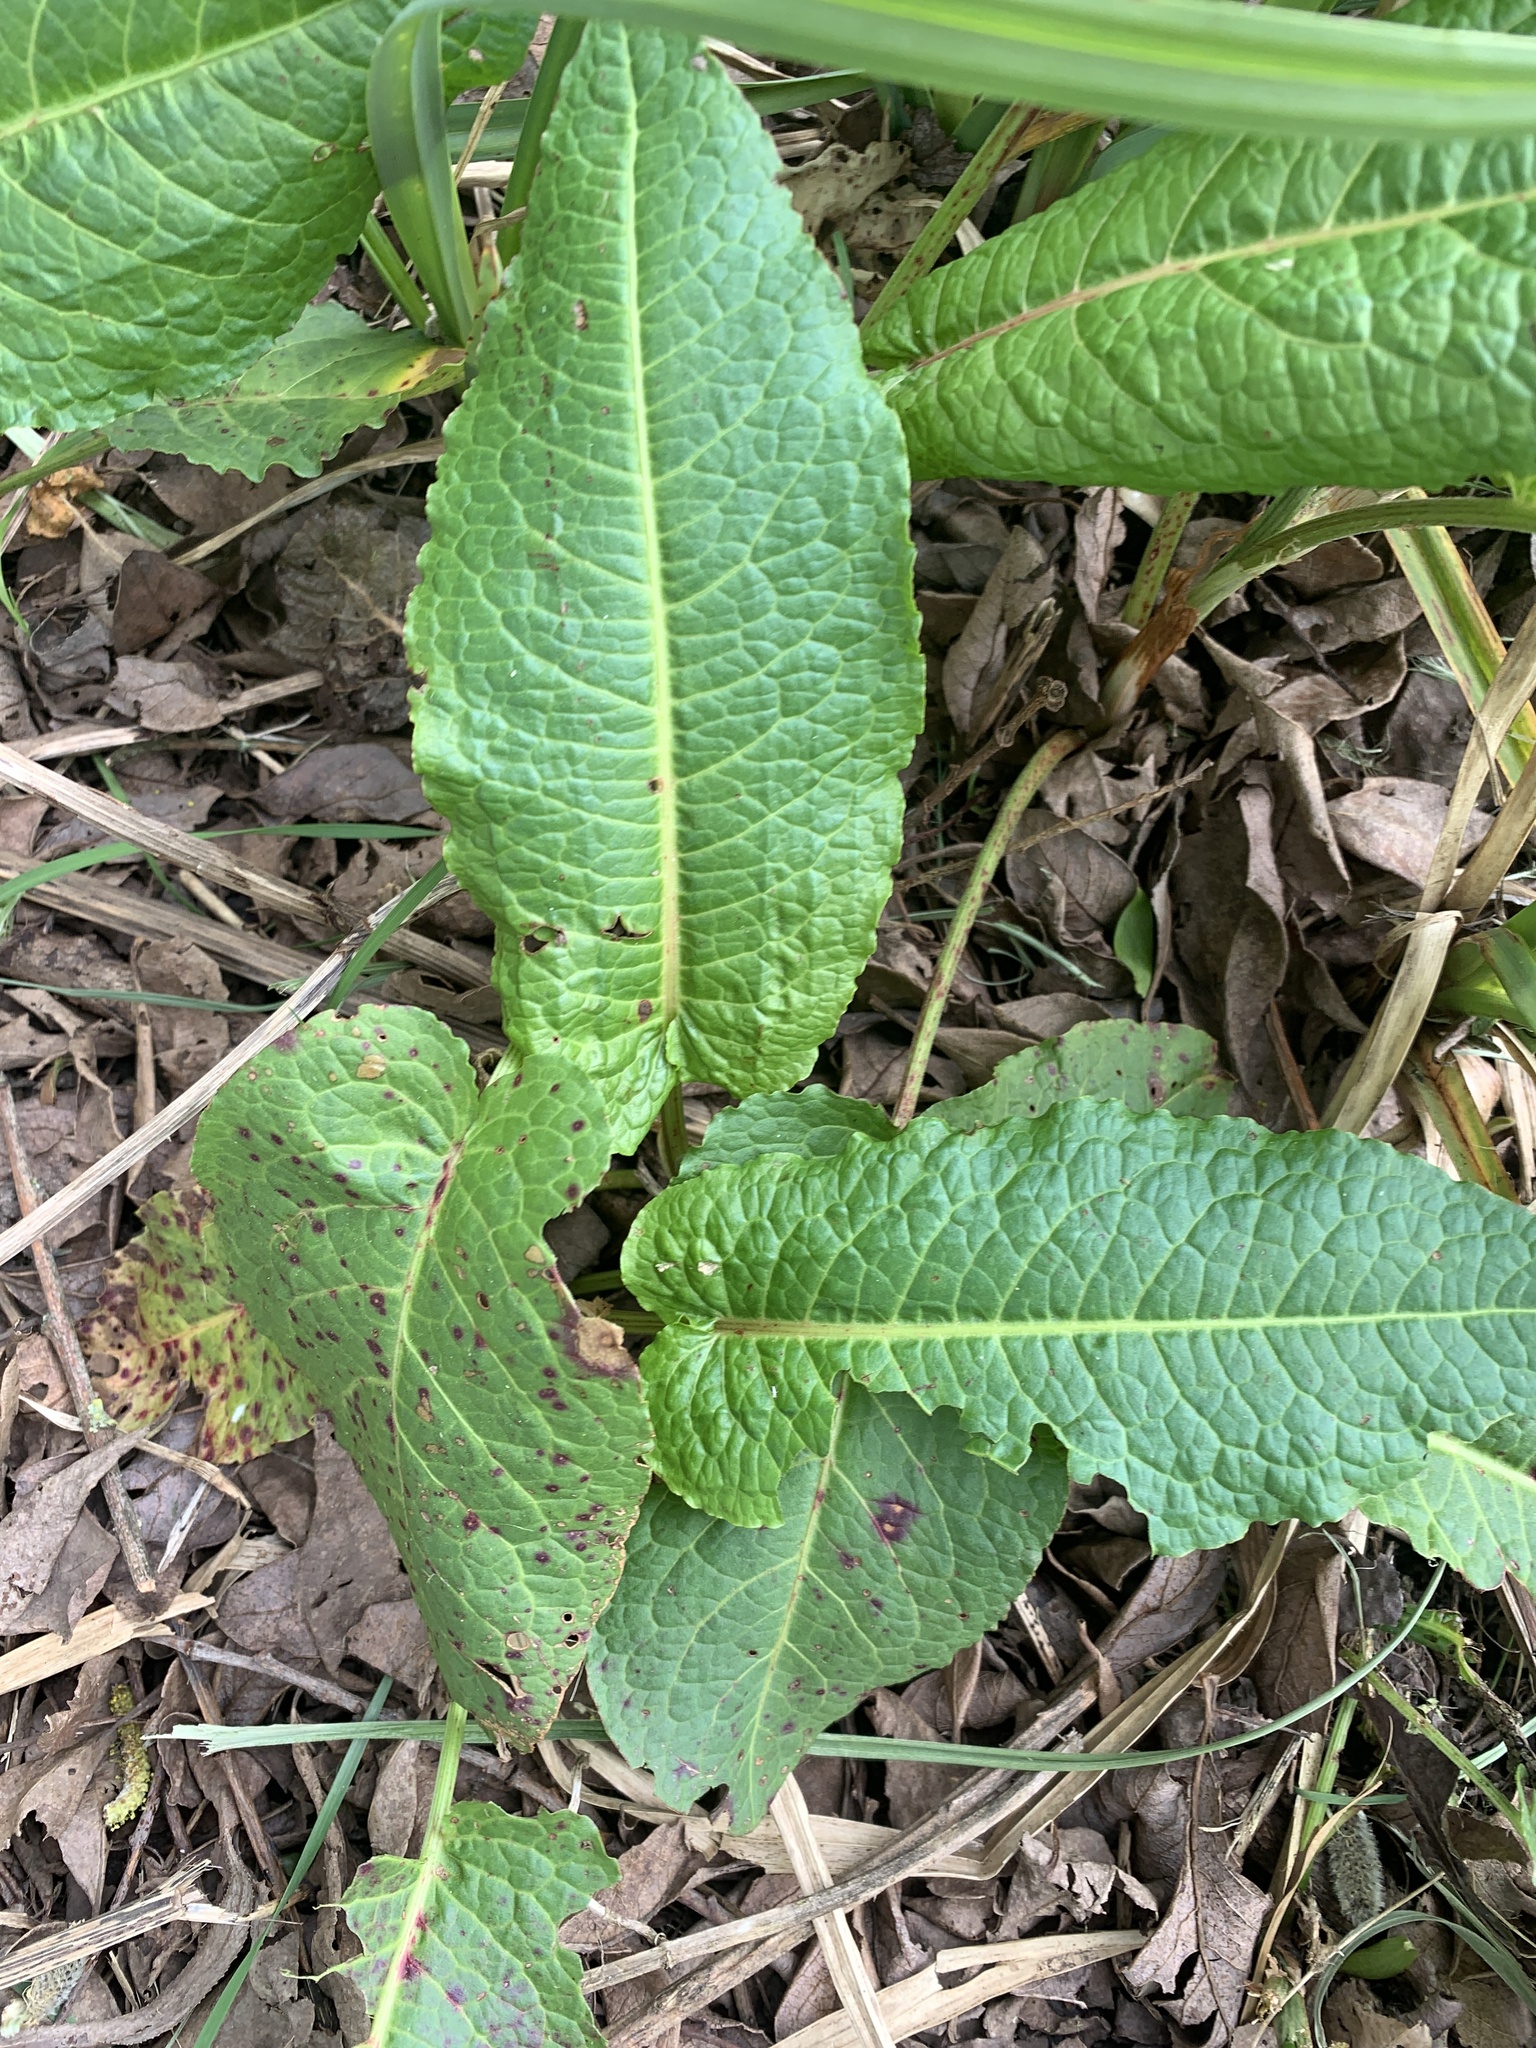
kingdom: Plantae
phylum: Tracheophyta
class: Magnoliopsida
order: Caryophyllales
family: Polygonaceae
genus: Rumex
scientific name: Rumex obtusifolius
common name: Bitter dock
